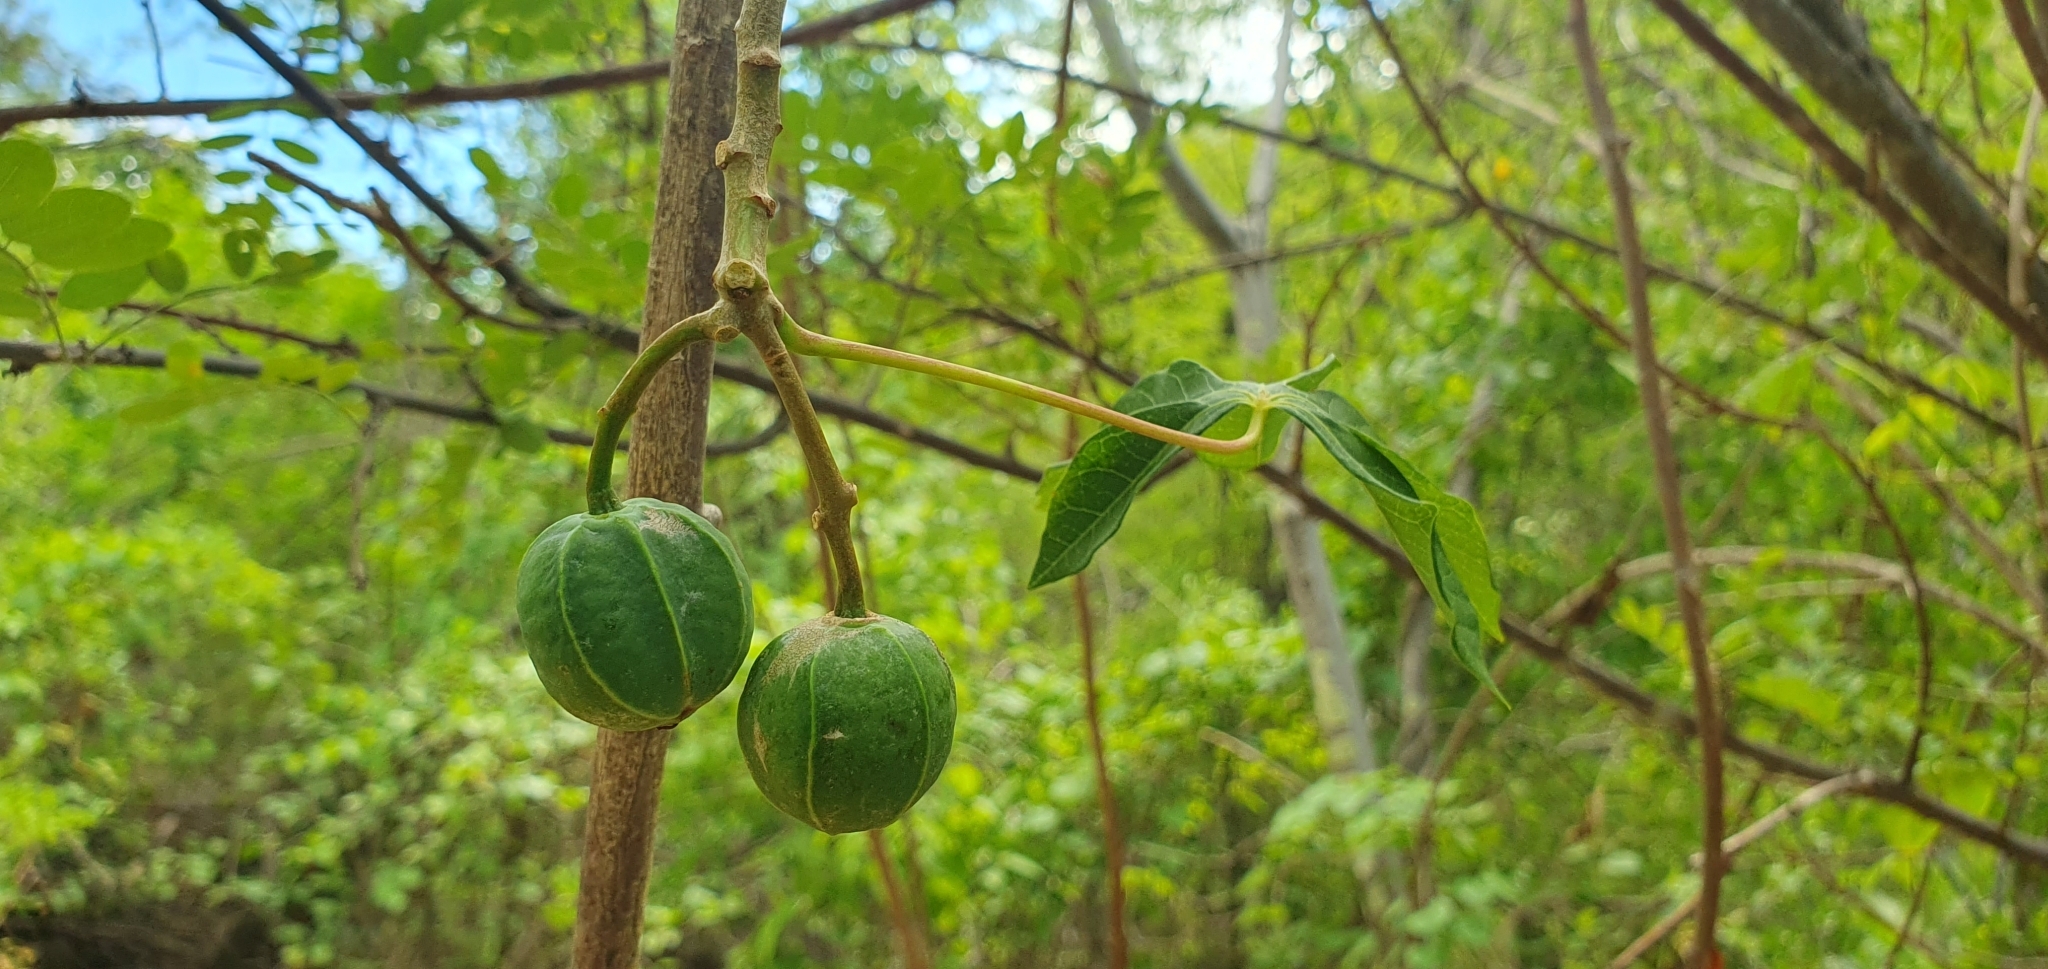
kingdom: Plantae
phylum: Tracheophyta
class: Magnoliopsida
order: Malpighiales
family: Euphorbiaceae
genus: Manihot
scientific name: Manihot chlorosticta
